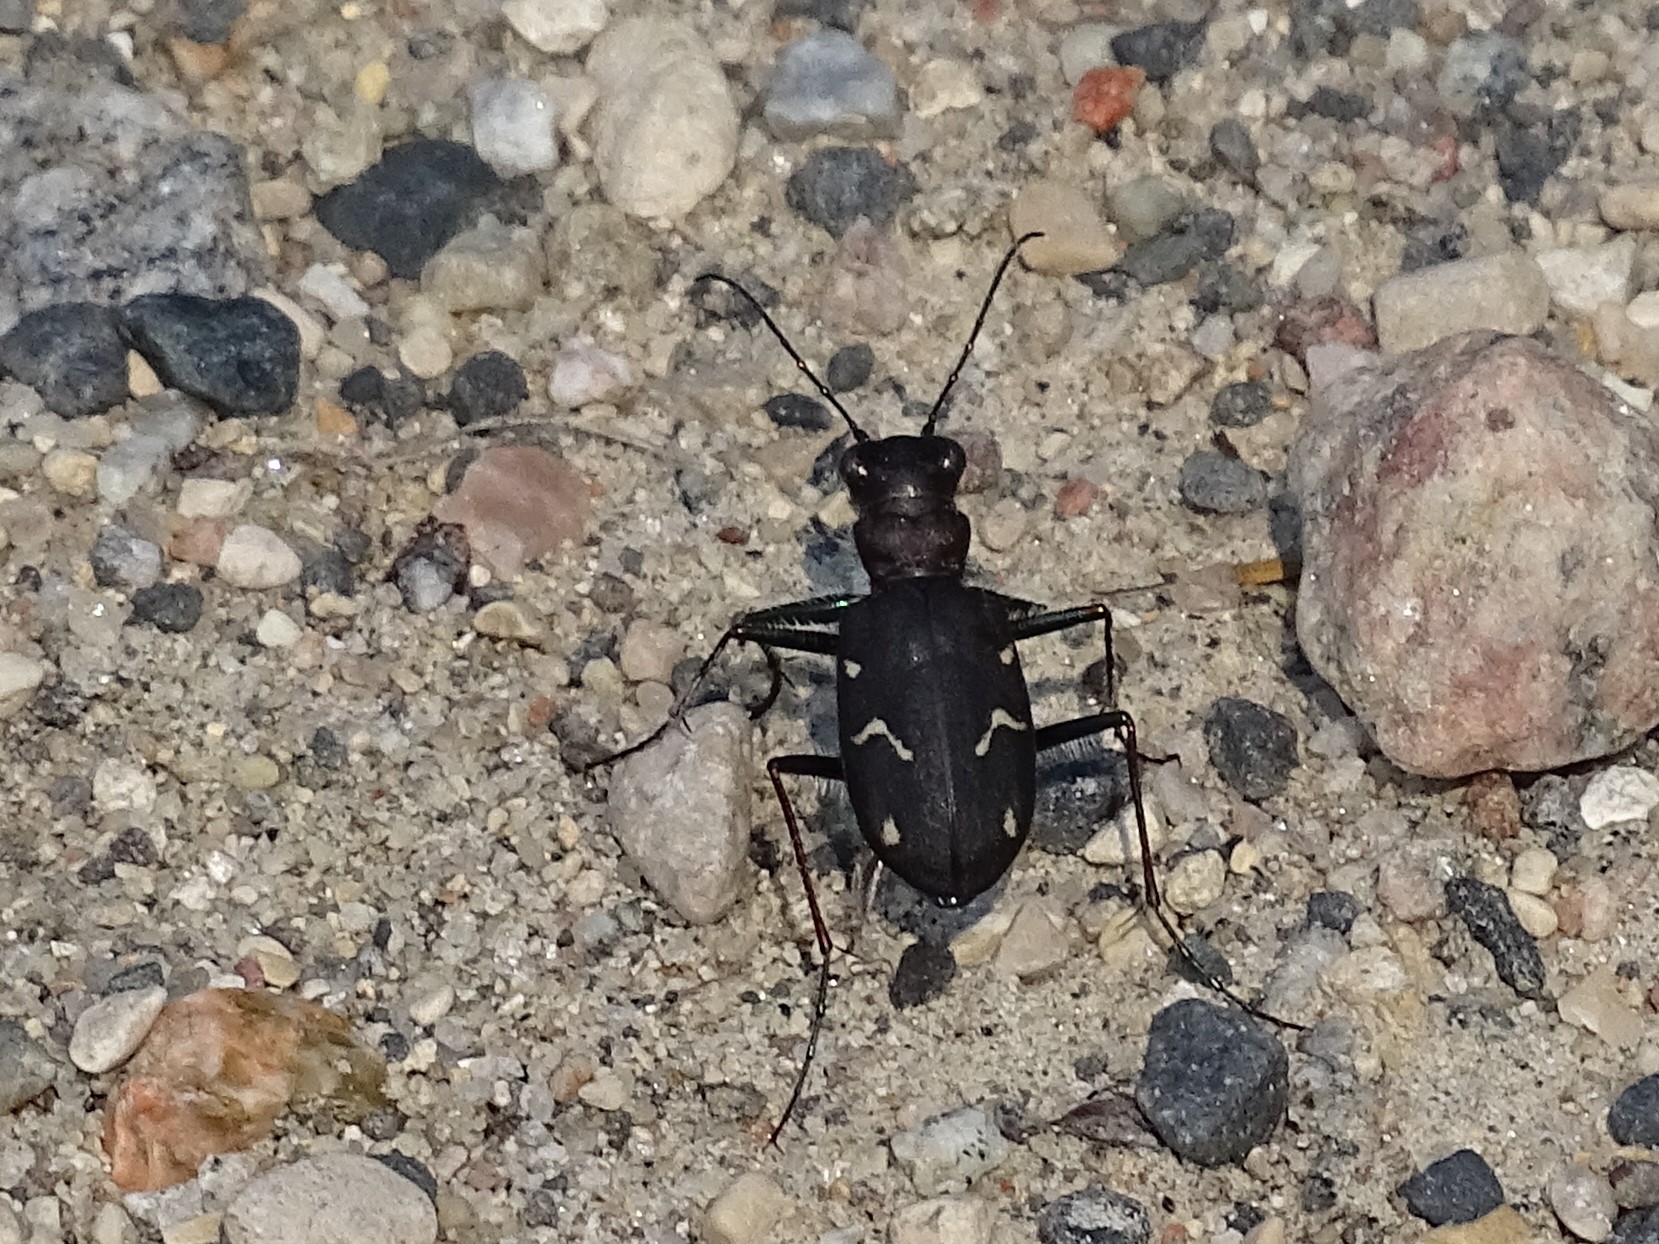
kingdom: Animalia
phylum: Arthropoda
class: Insecta
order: Coleoptera
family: Carabidae
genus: Cicindela
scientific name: Cicindela longilabris
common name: Boreal long-lipped tiger beetle
